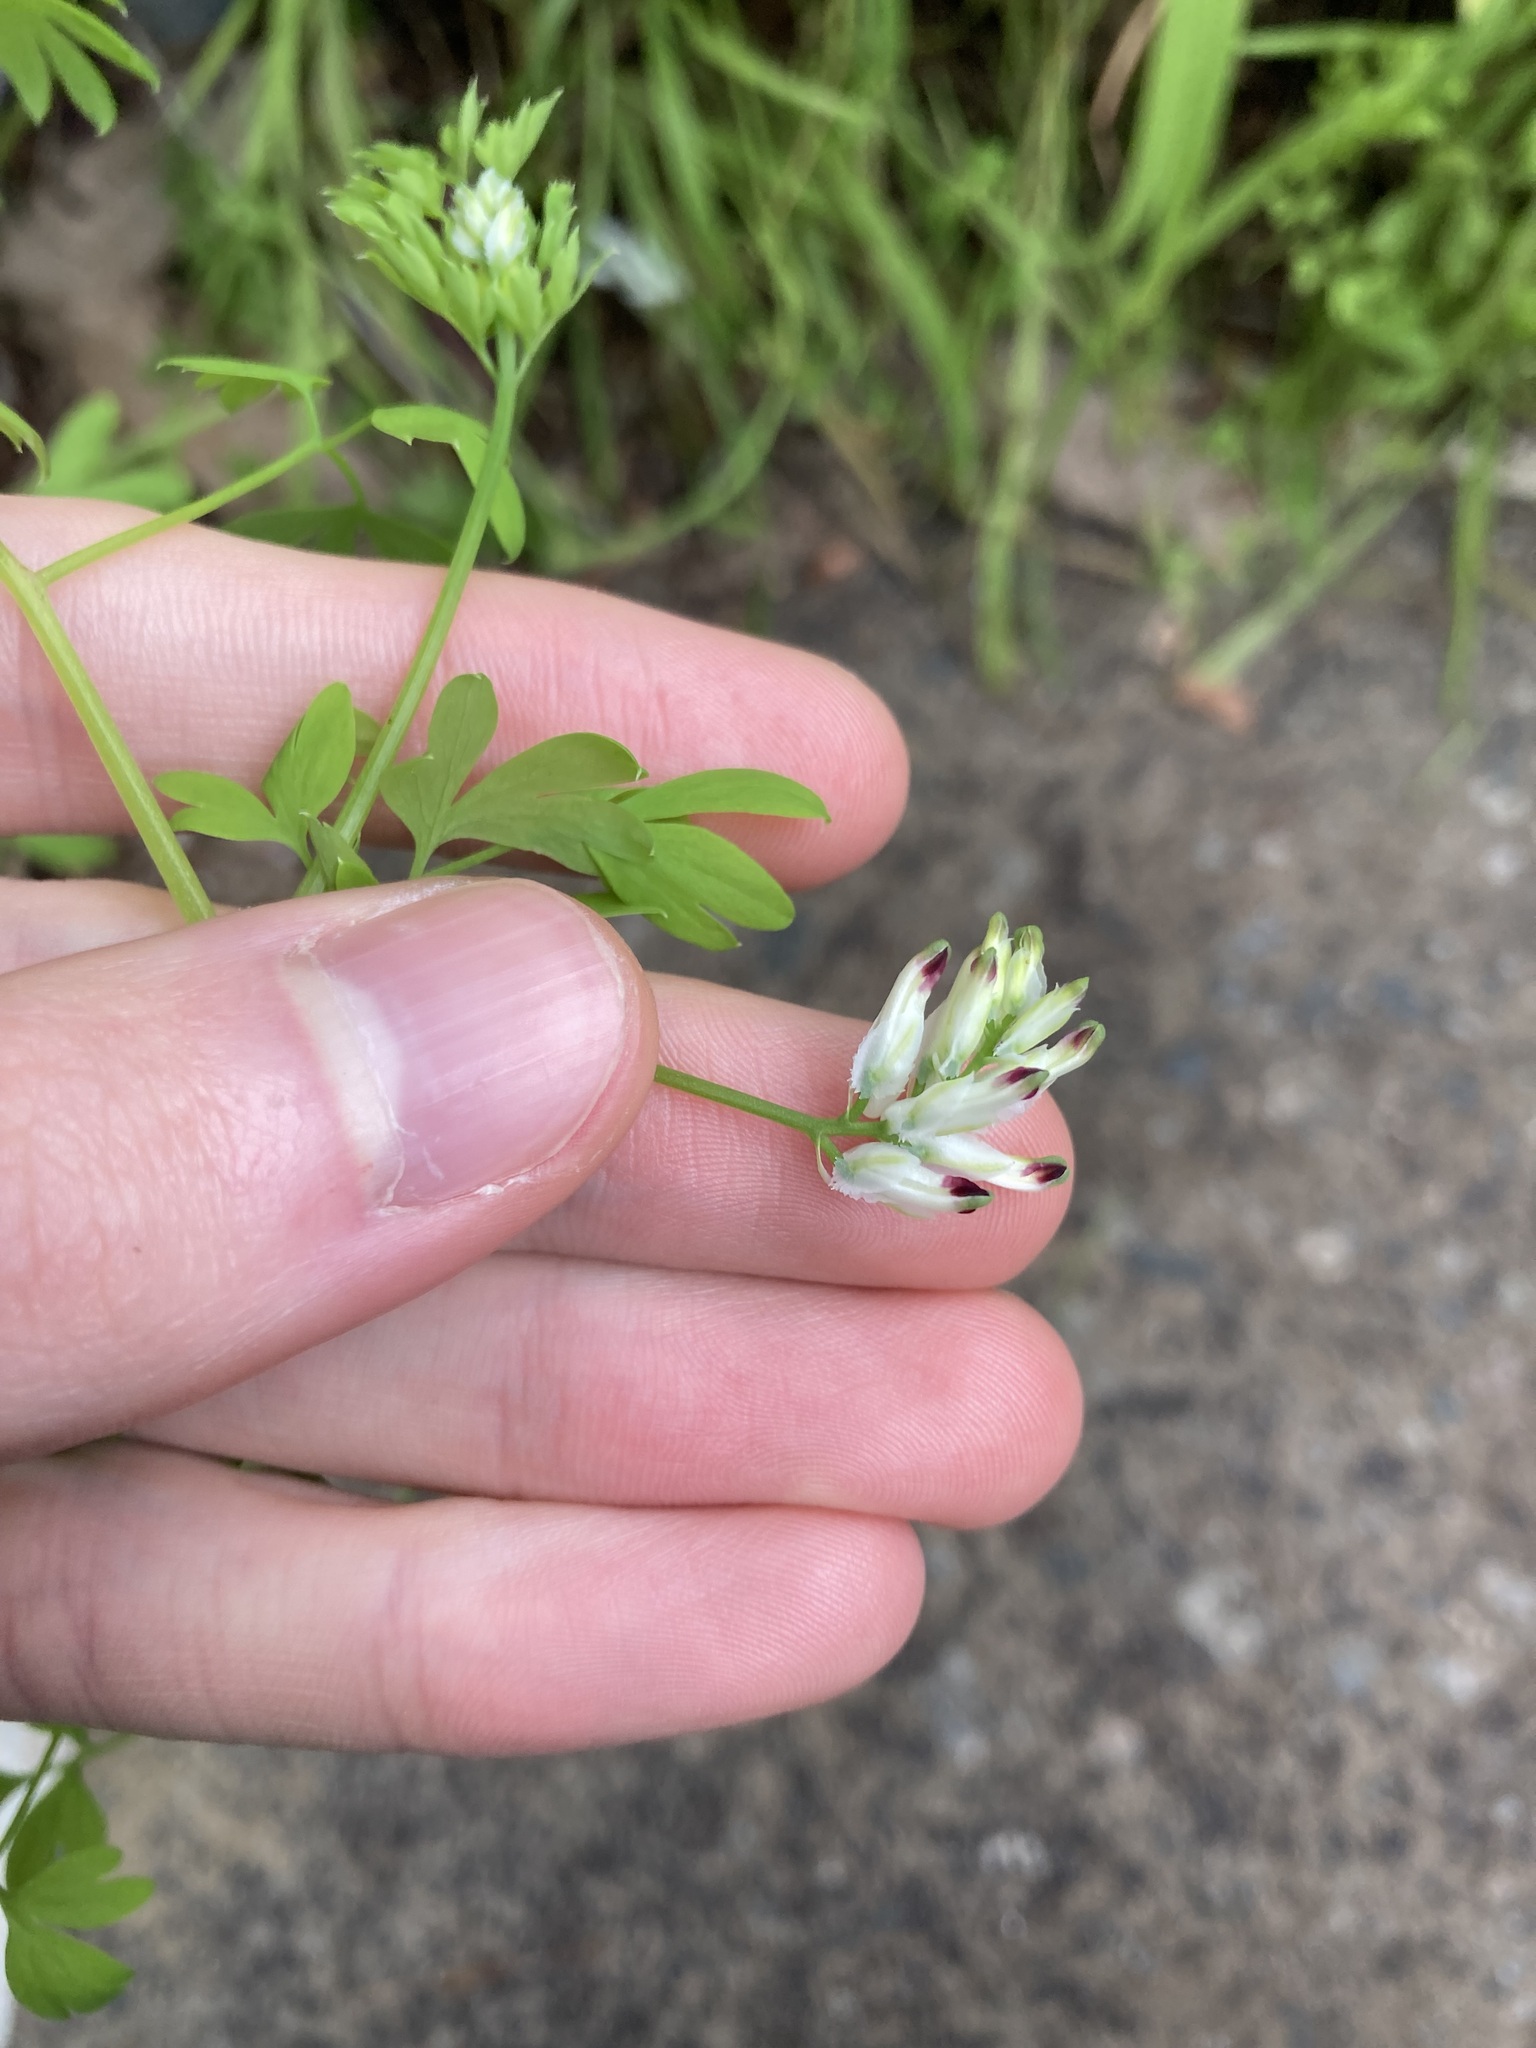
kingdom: Plantae
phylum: Tracheophyta
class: Magnoliopsida
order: Ranunculales
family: Papaveraceae
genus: Fumaria
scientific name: Fumaria capreolata
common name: White ramping-fumitory
